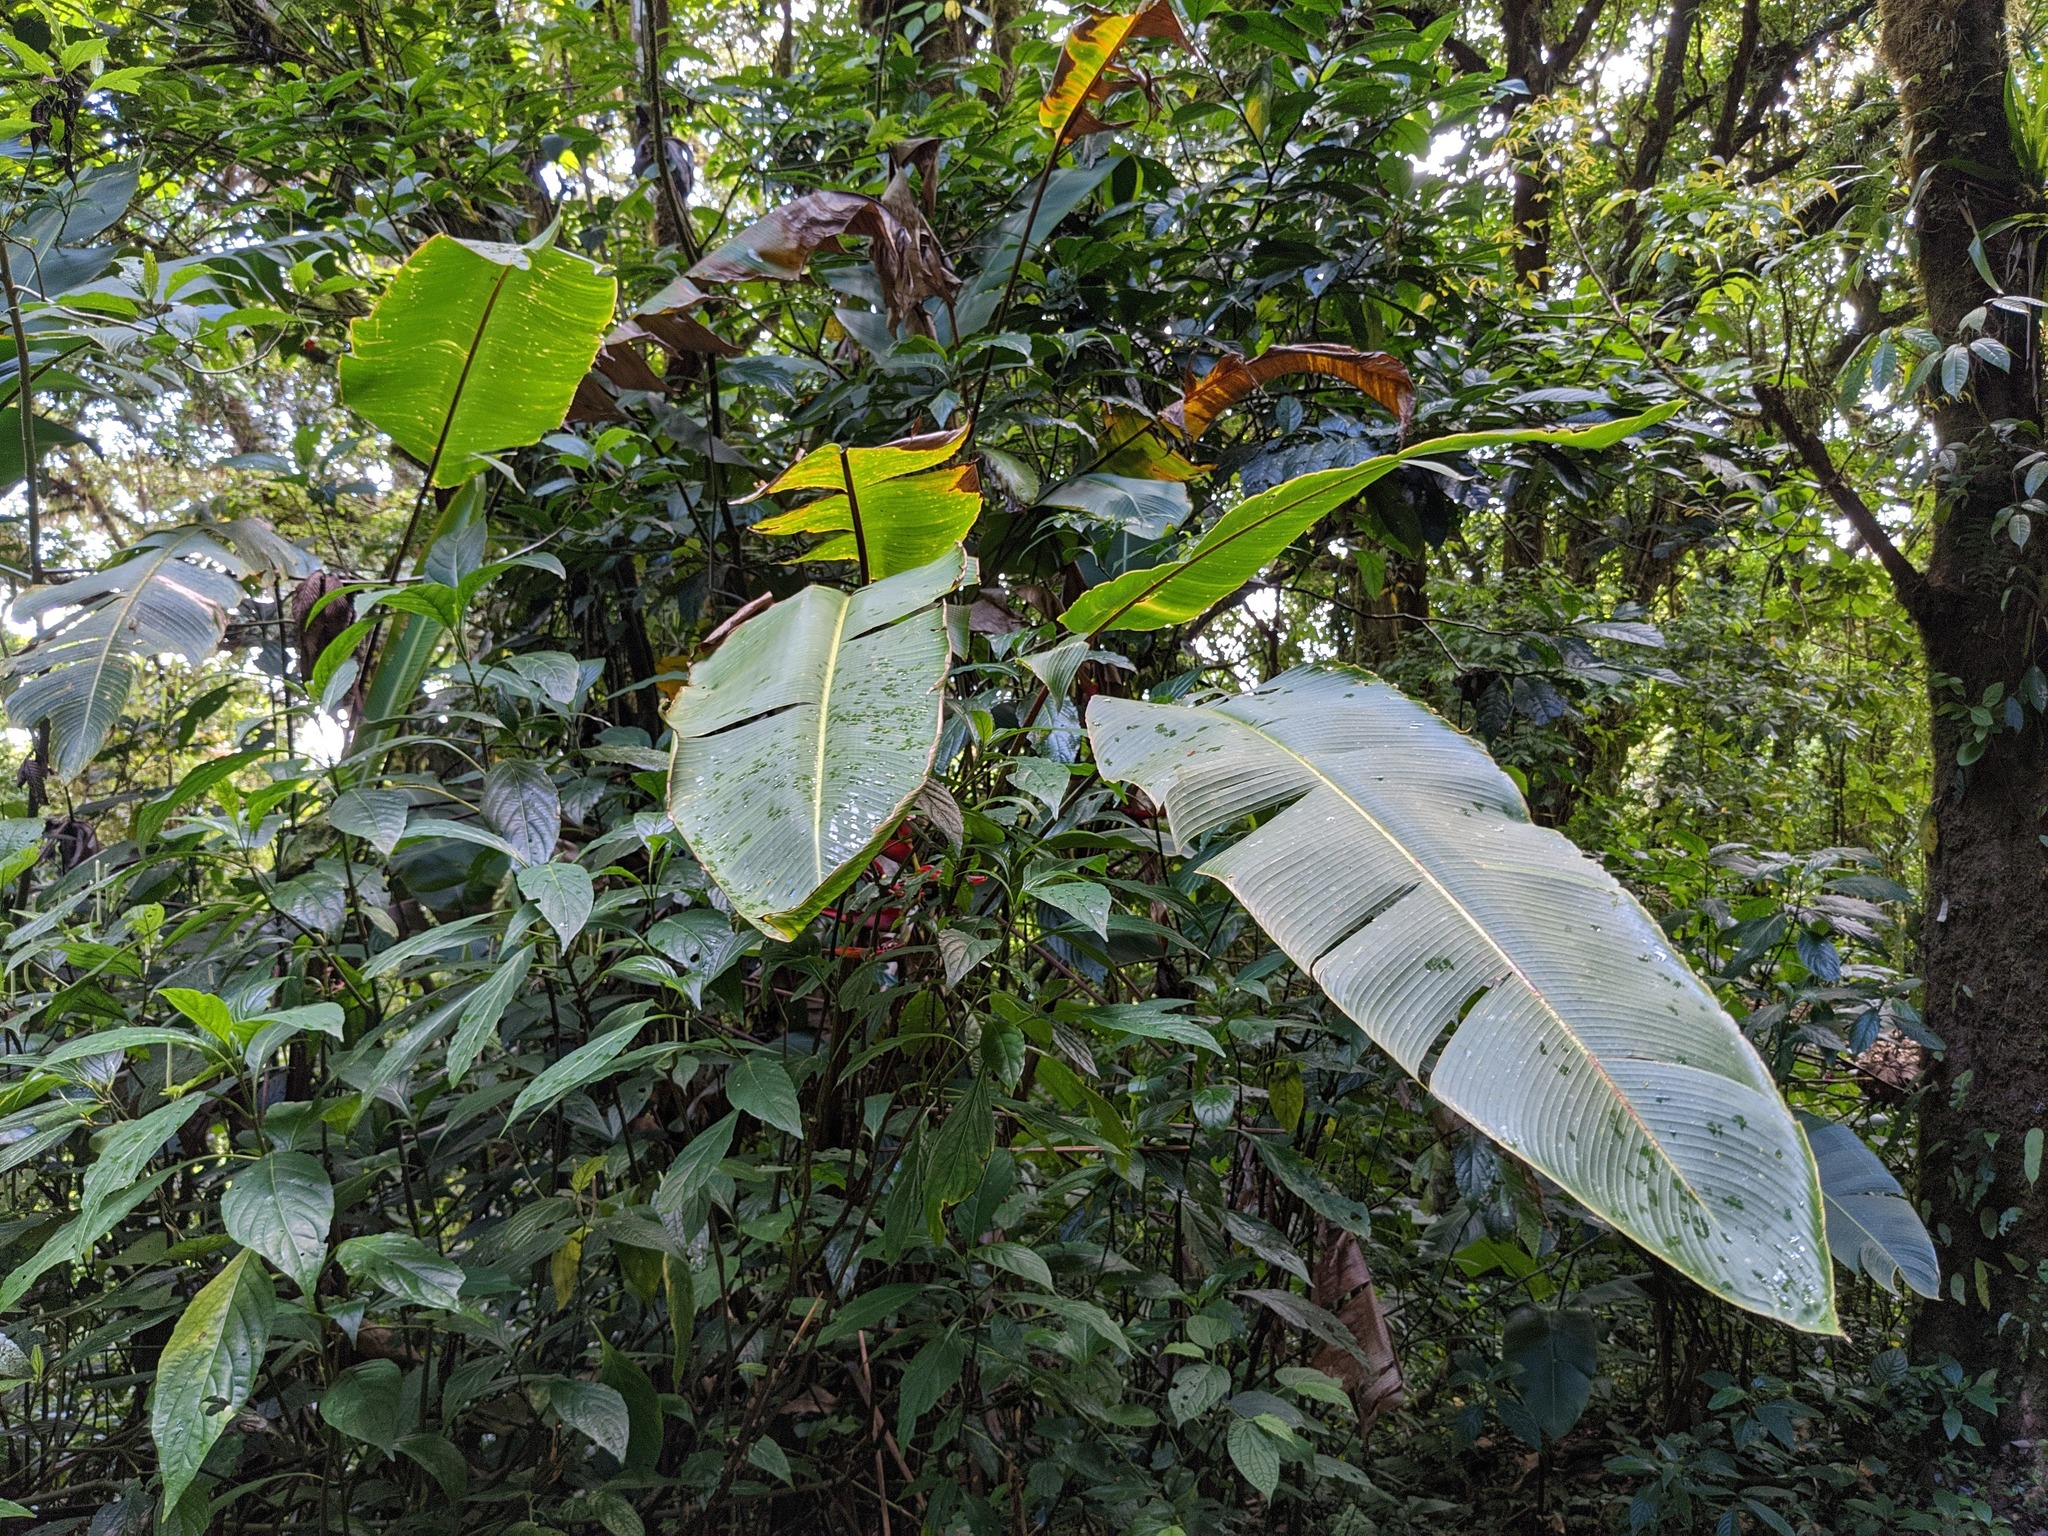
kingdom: Plantae
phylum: Tracheophyta
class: Liliopsida
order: Zingiberales
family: Heliconiaceae
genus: Heliconia
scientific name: Heliconia monteverdensis
